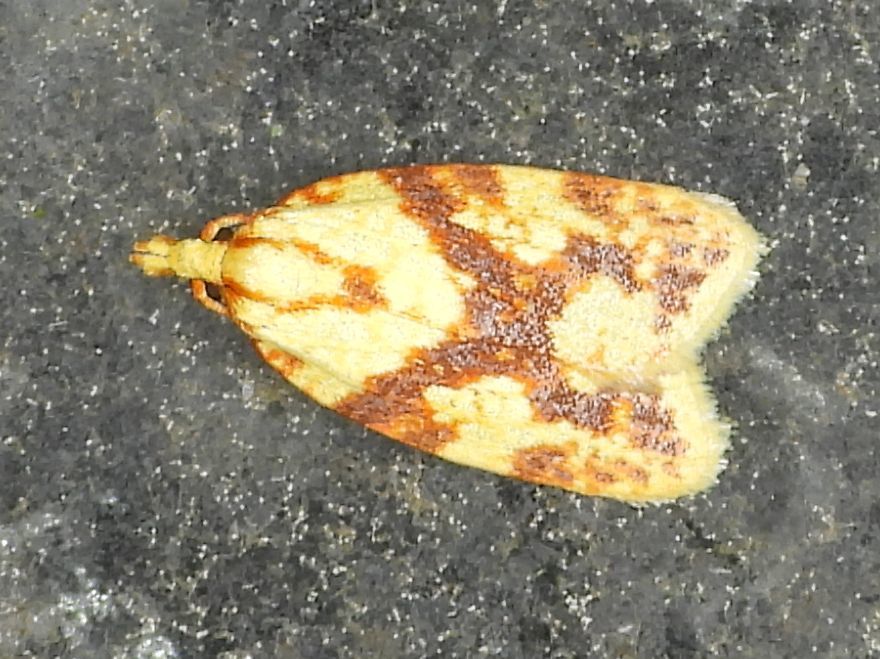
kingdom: Animalia
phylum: Arthropoda
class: Insecta
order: Lepidoptera
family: Tortricidae
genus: Sparganothis
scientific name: Sparganothis sulfureana
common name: Sparganothis fruitworm moth
